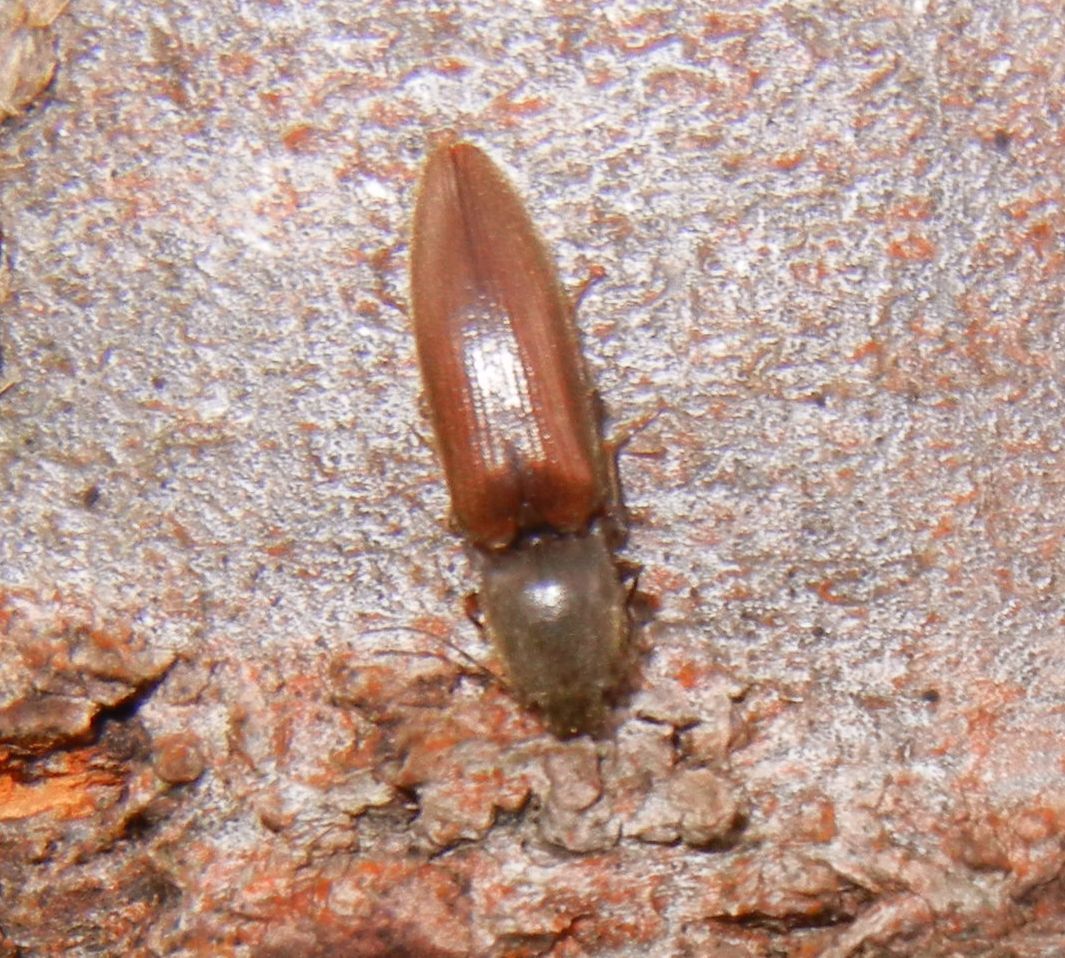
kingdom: Animalia
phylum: Arthropoda
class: Insecta
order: Coleoptera
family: Elateridae
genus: Athous
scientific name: Athous haemorrhoidalis
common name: Red-brown click beetle
